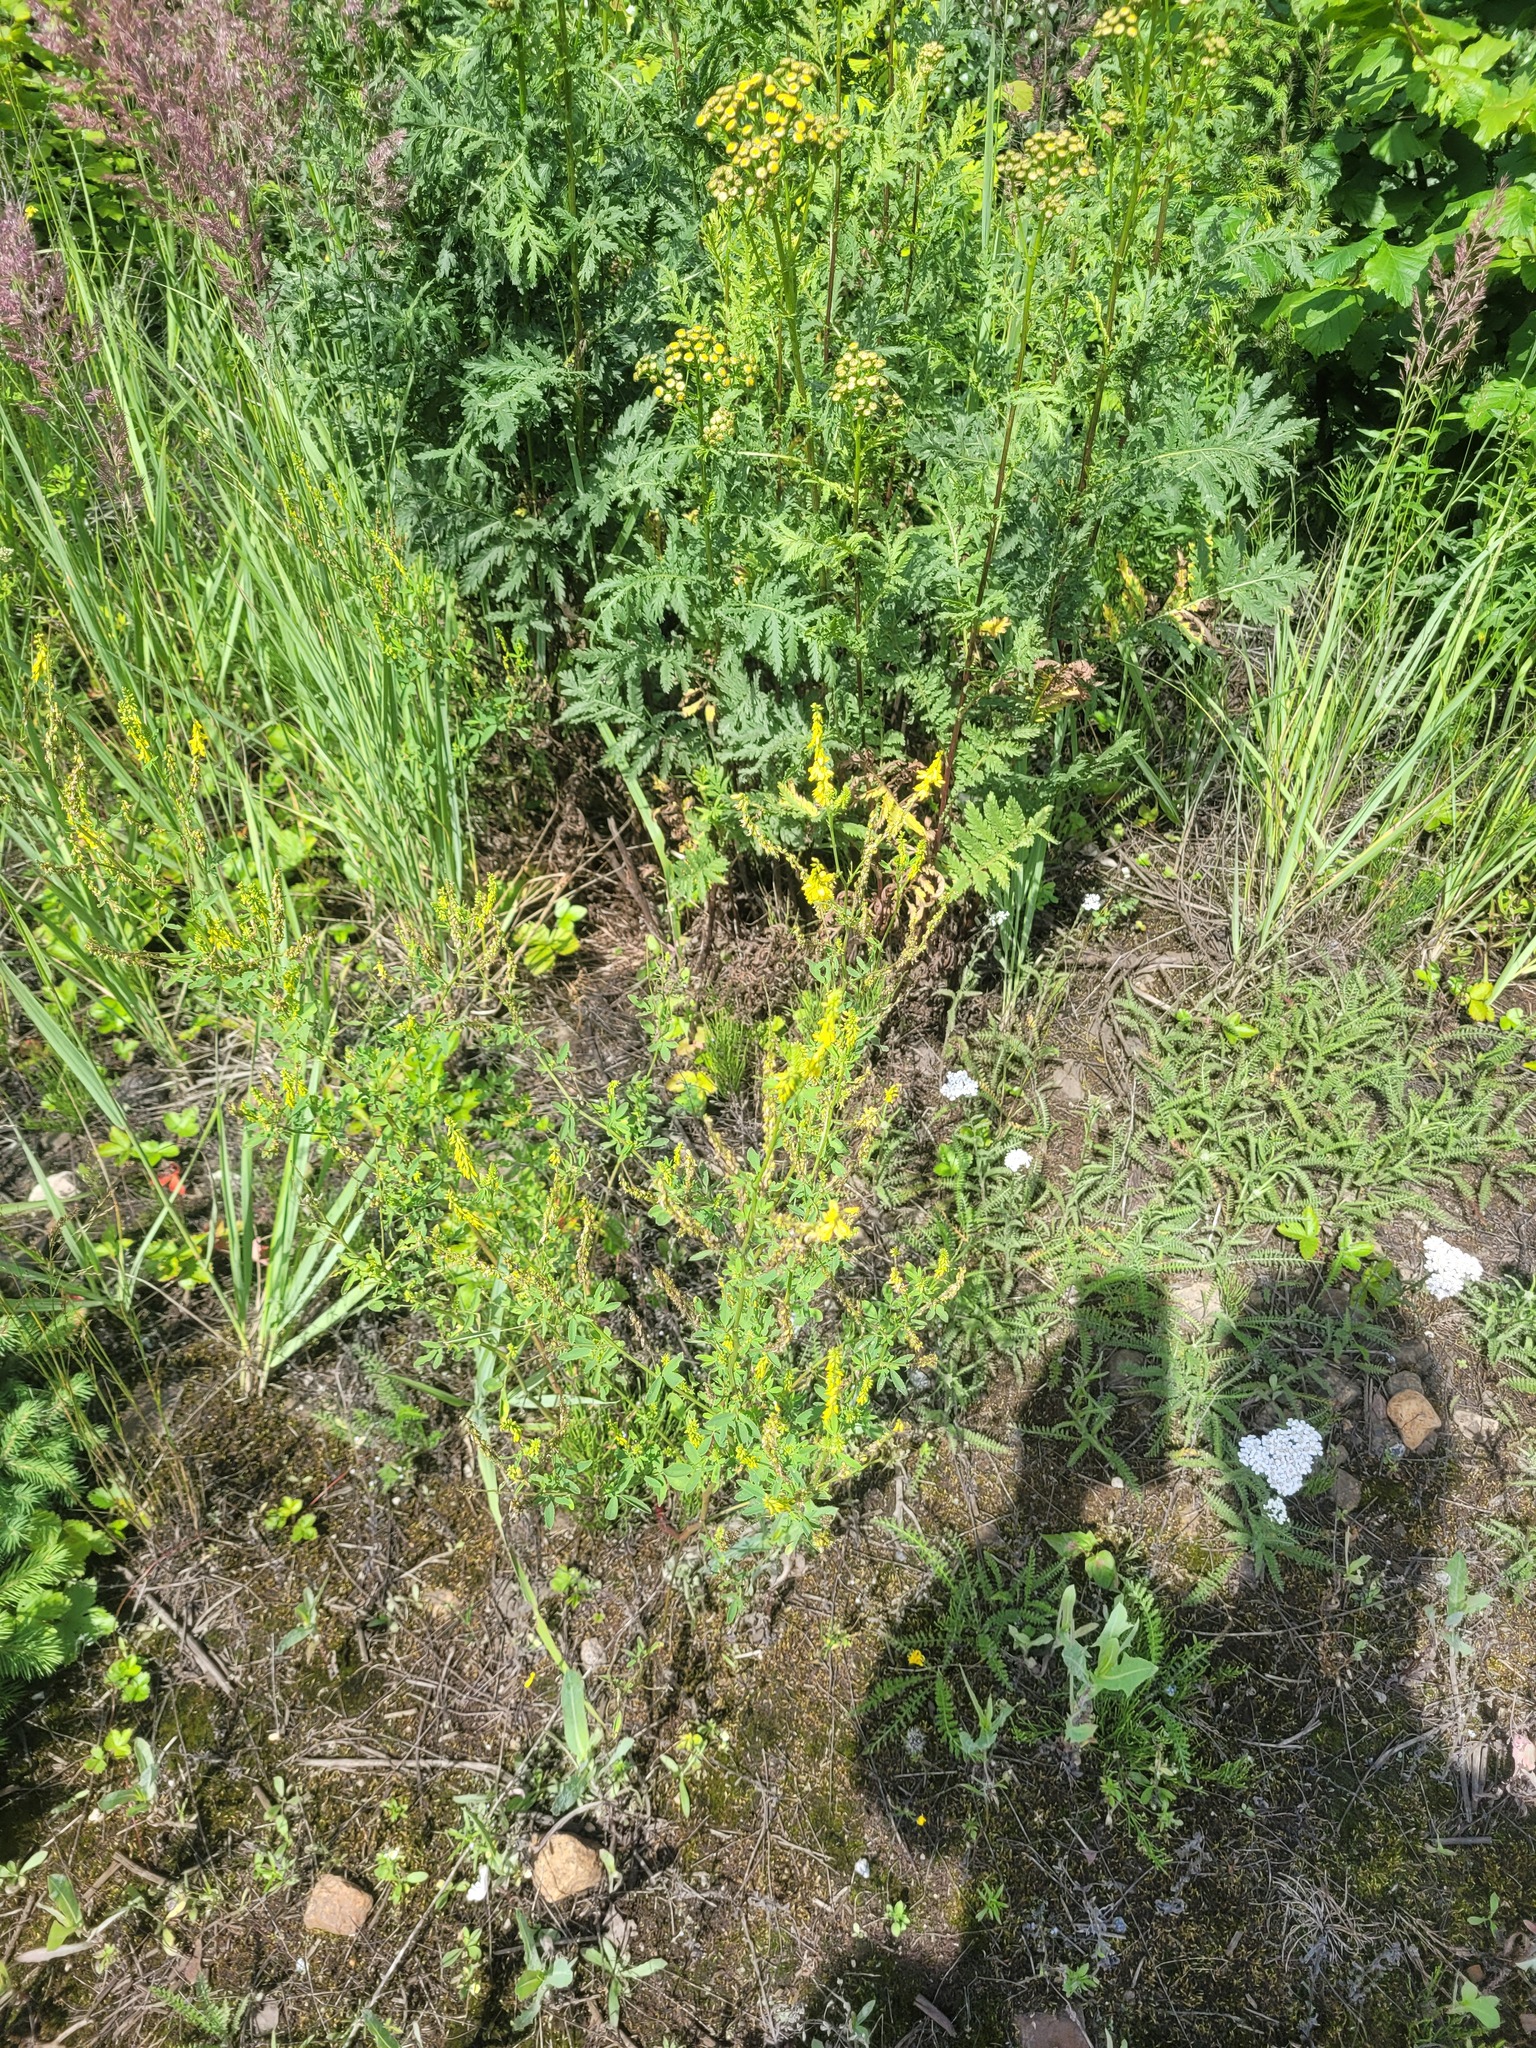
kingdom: Plantae
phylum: Tracheophyta
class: Magnoliopsida
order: Fabales
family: Fabaceae
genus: Melilotus
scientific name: Melilotus officinalis
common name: Sweetclover
